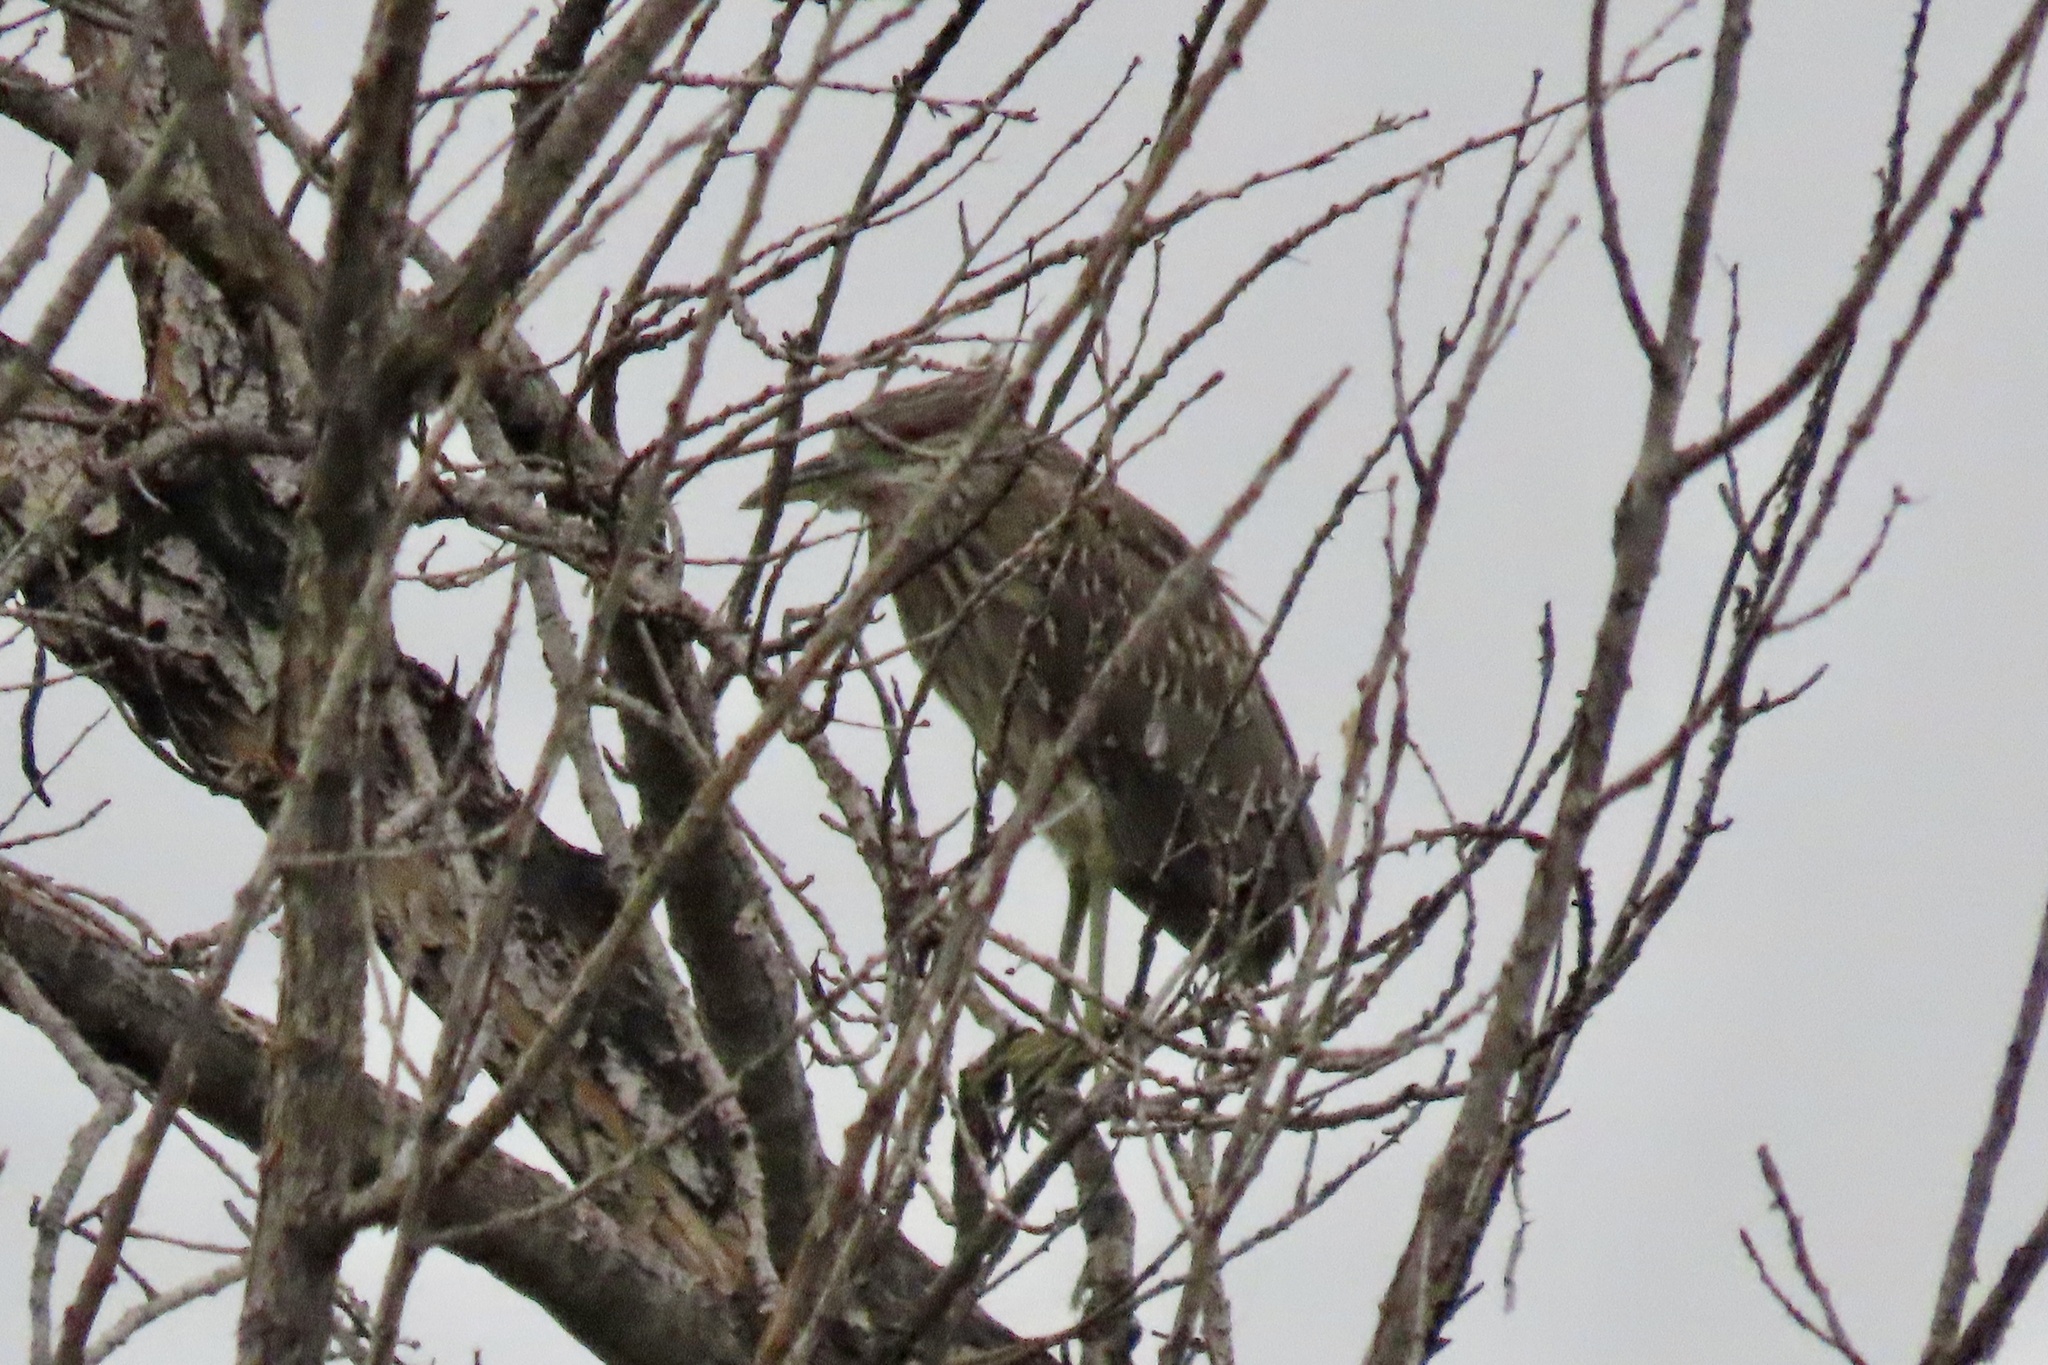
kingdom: Animalia
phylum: Chordata
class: Aves
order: Pelecaniformes
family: Ardeidae
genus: Nycticorax
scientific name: Nycticorax nycticorax
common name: Black-crowned night heron
